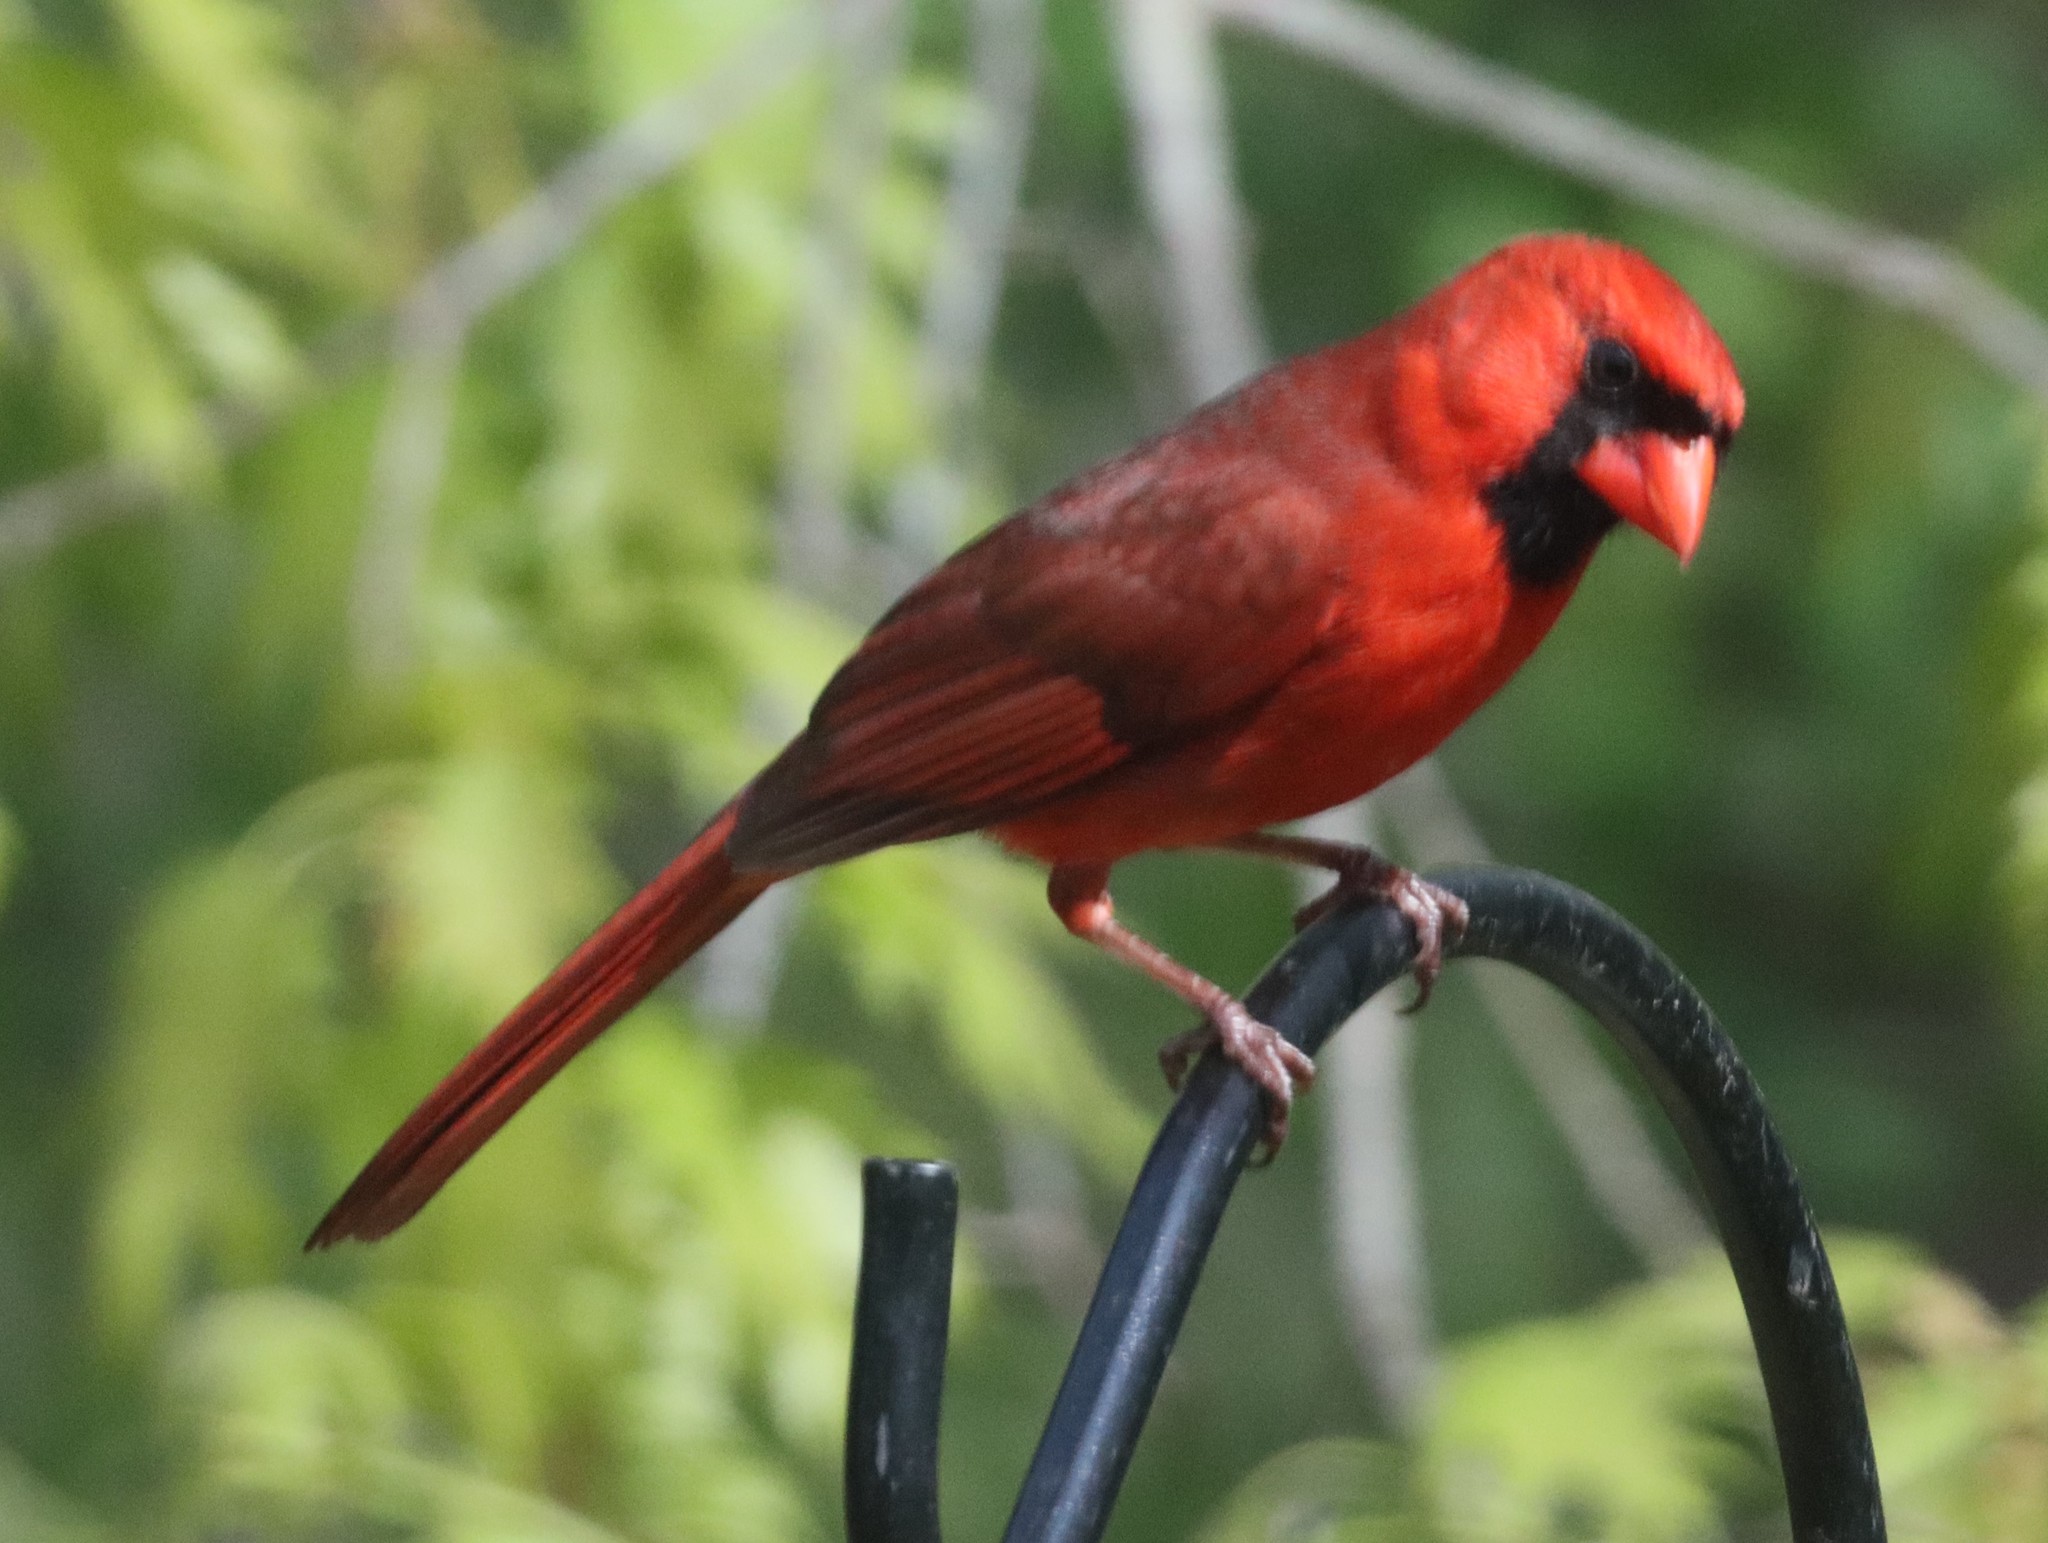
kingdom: Animalia
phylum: Chordata
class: Aves
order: Passeriformes
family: Cardinalidae
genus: Cardinalis
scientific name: Cardinalis cardinalis
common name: Northern cardinal
